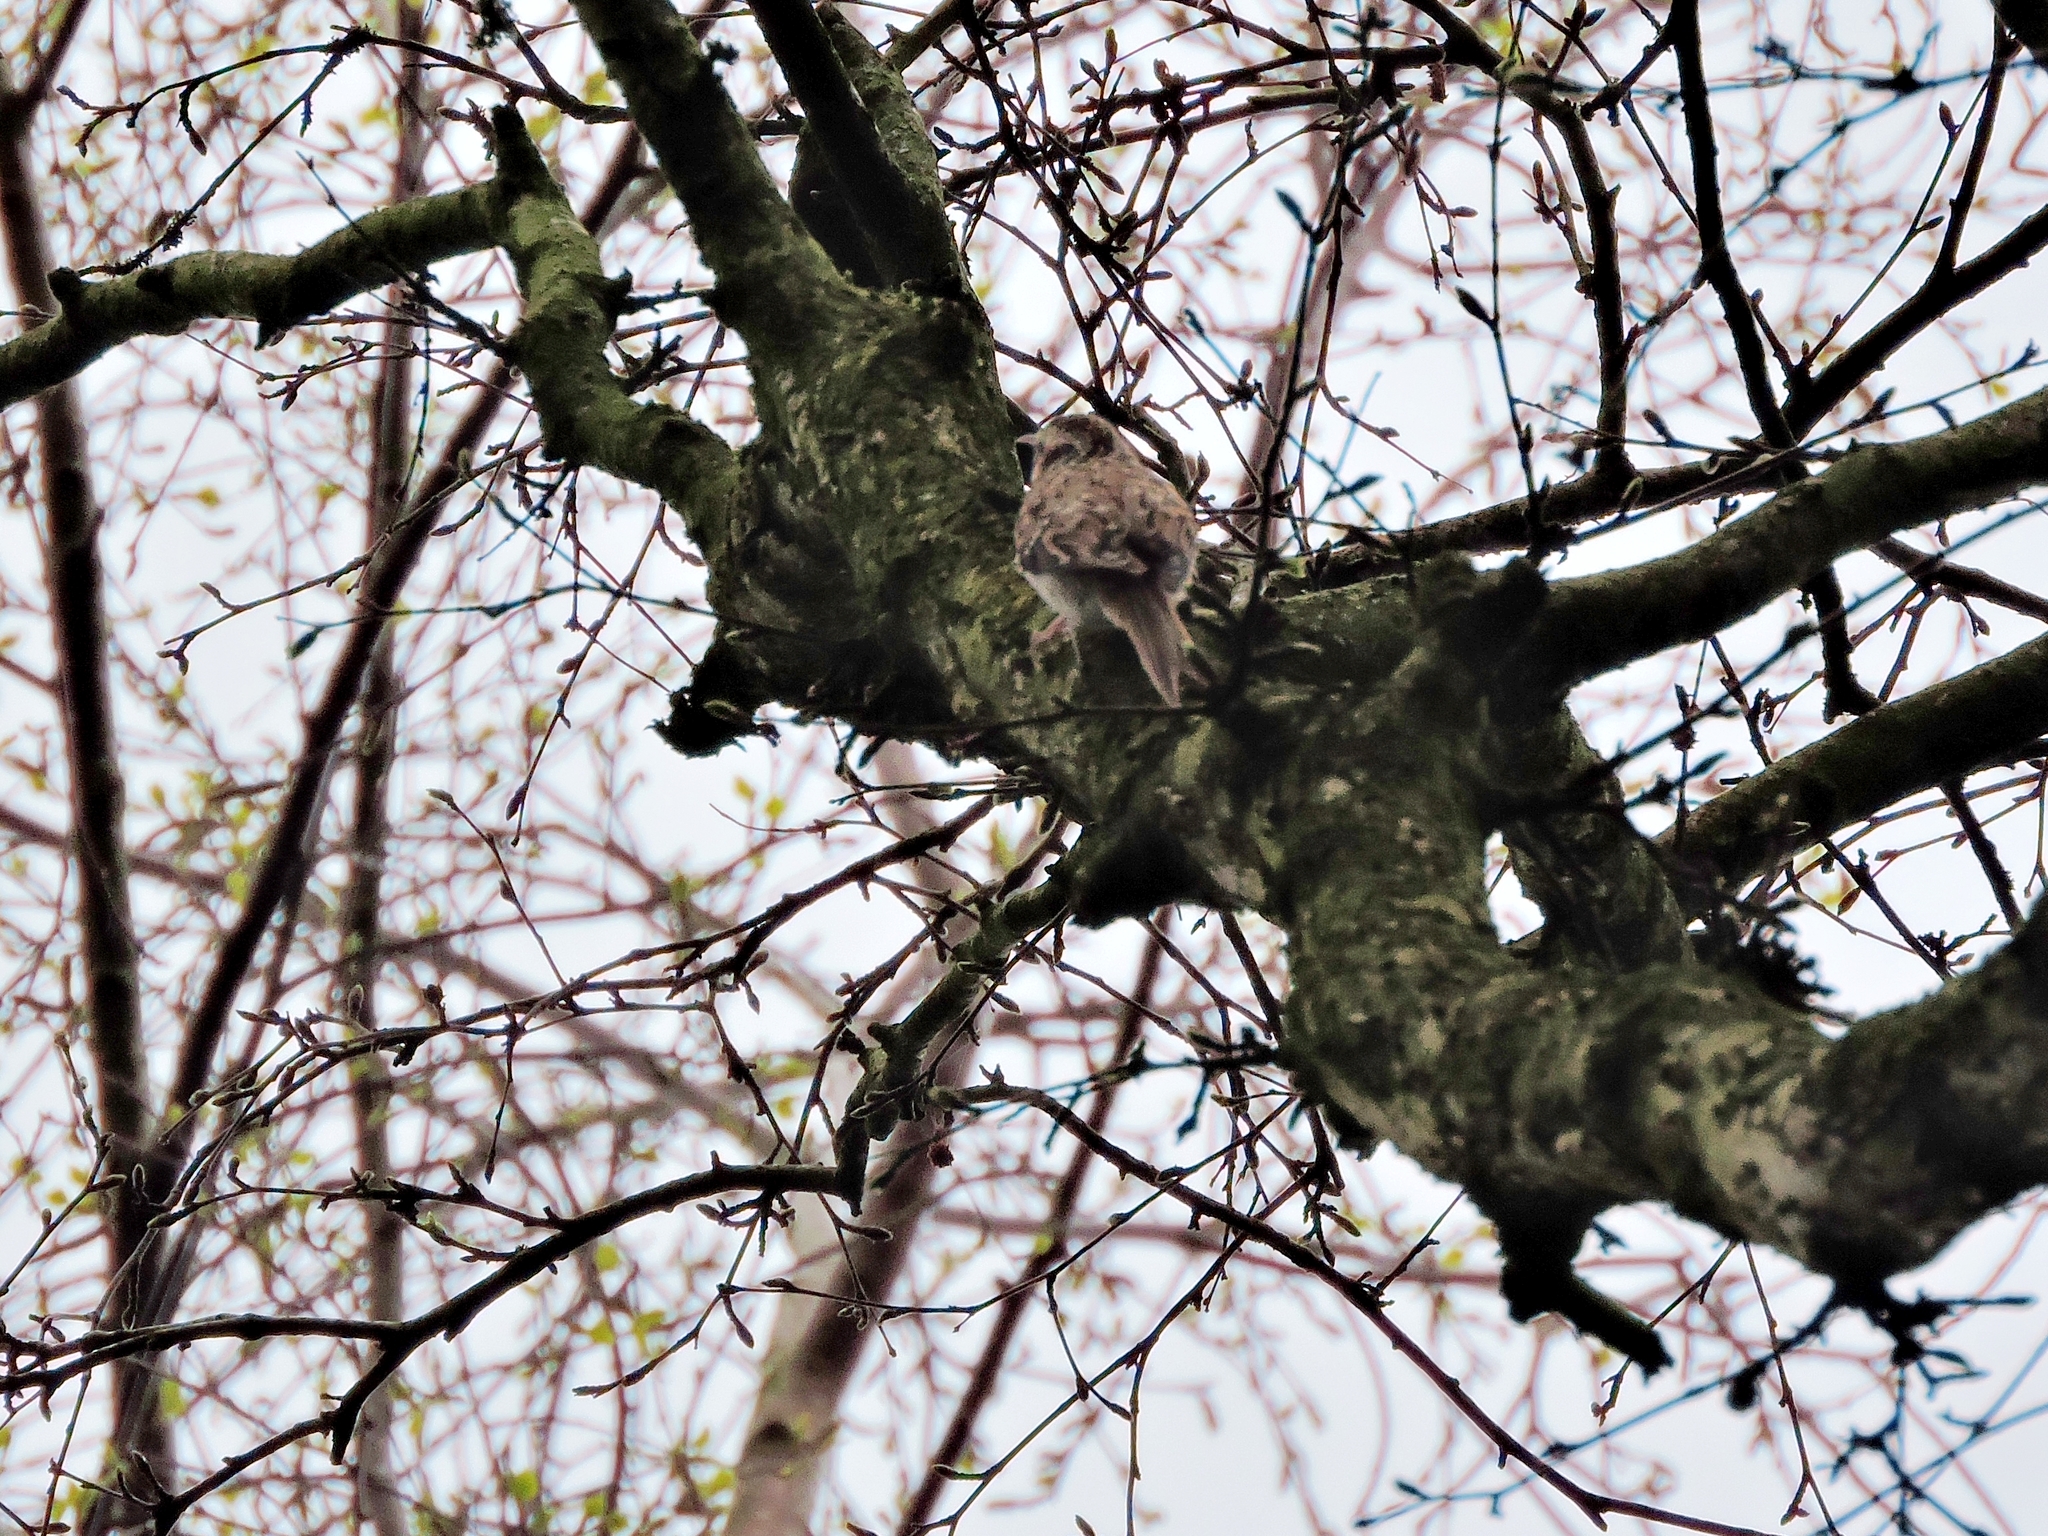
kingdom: Animalia
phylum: Chordata
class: Aves
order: Passeriformes
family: Certhiidae
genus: Certhia
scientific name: Certhia familiaris
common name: Eurasian treecreeper
